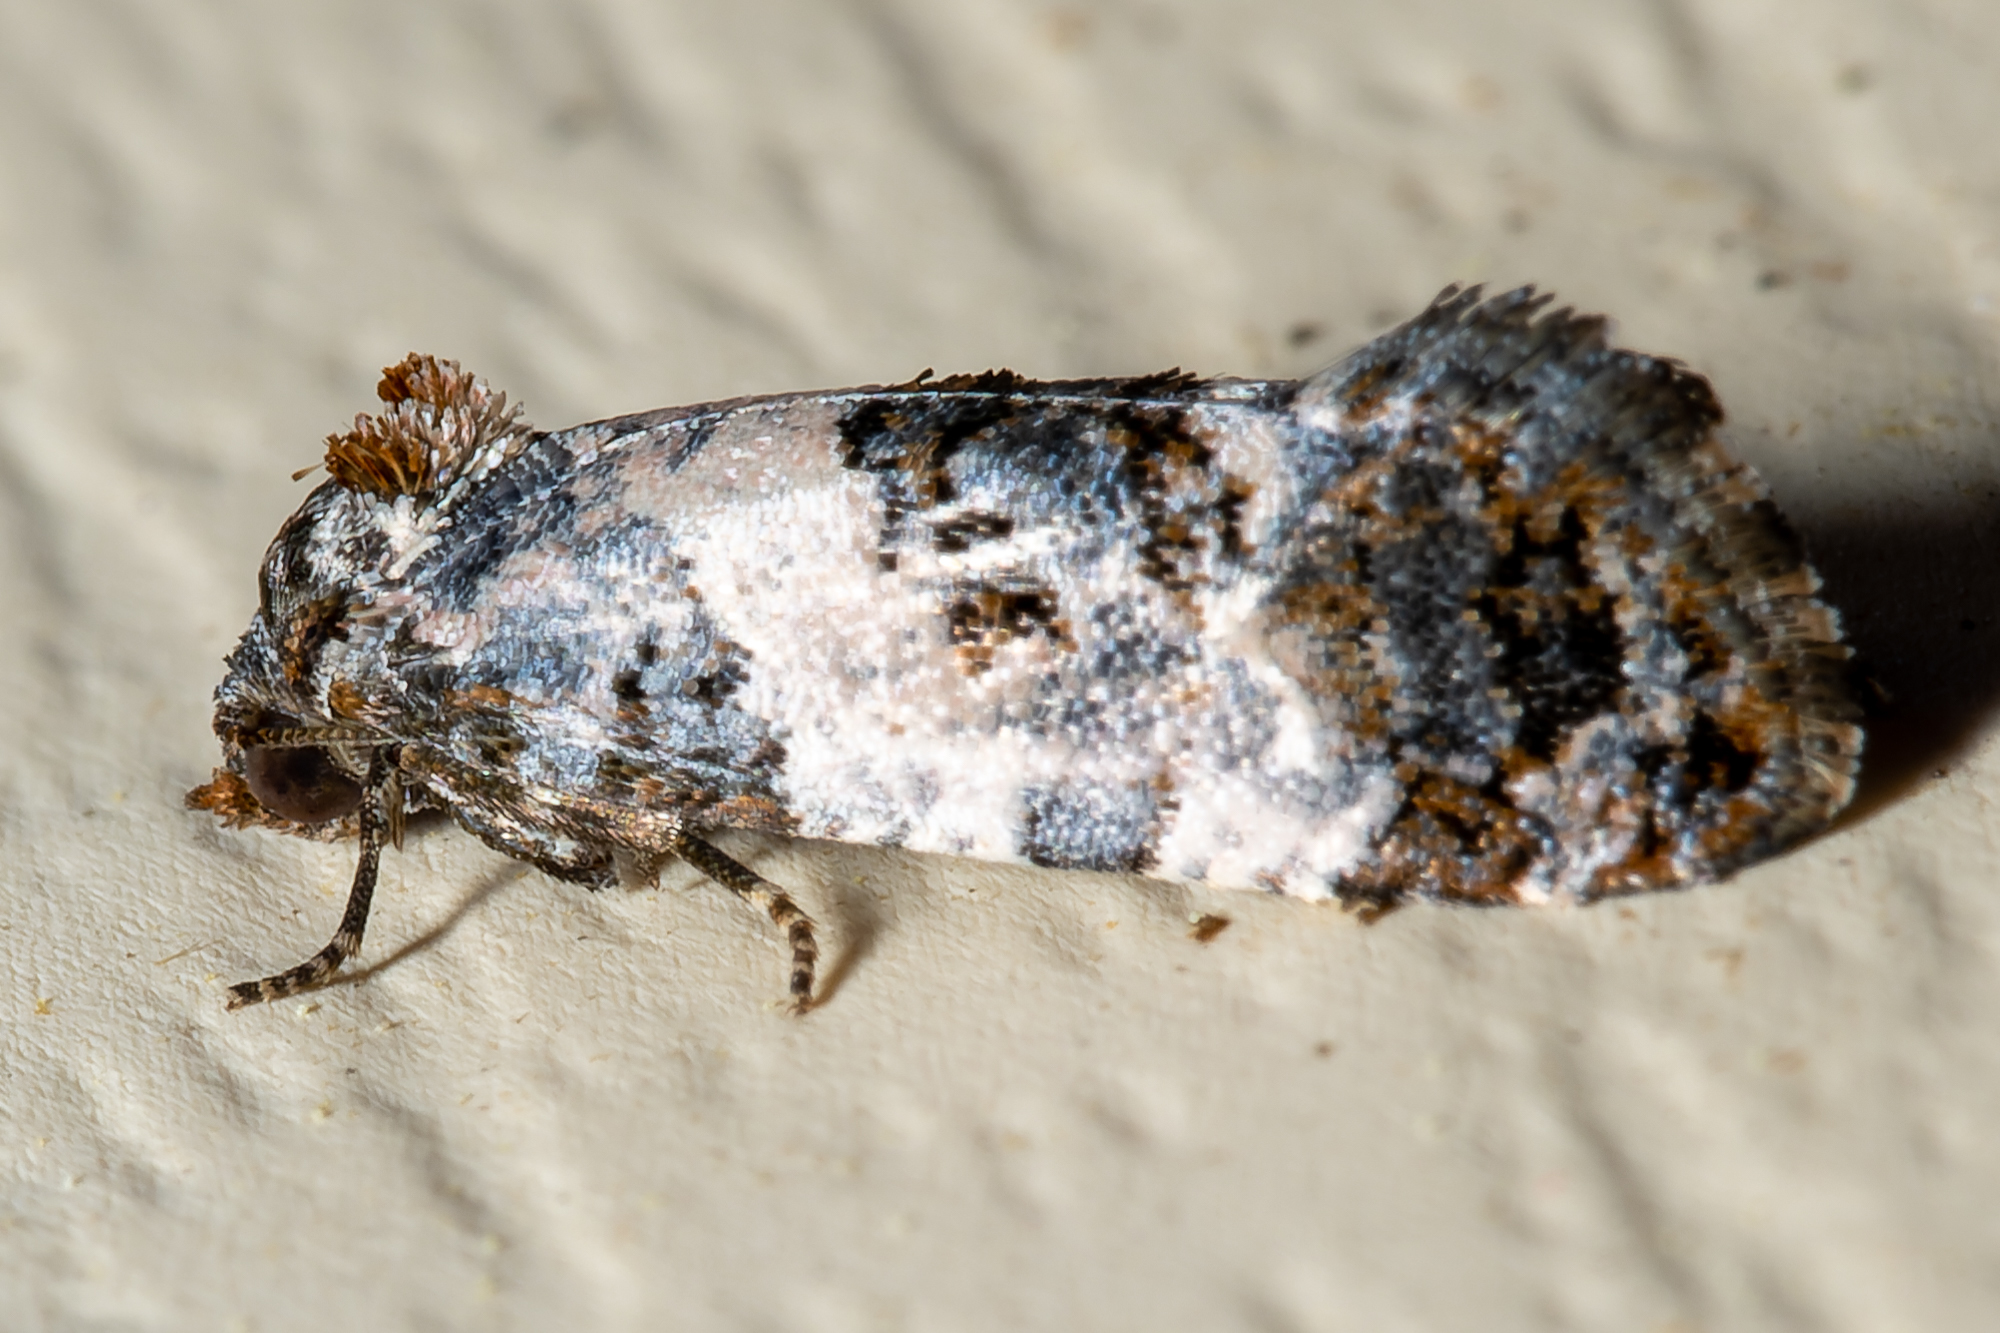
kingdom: Animalia
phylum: Arthropoda
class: Insecta
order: Lepidoptera
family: Tortricidae
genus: Rudenia
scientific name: Rudenia leguminana
